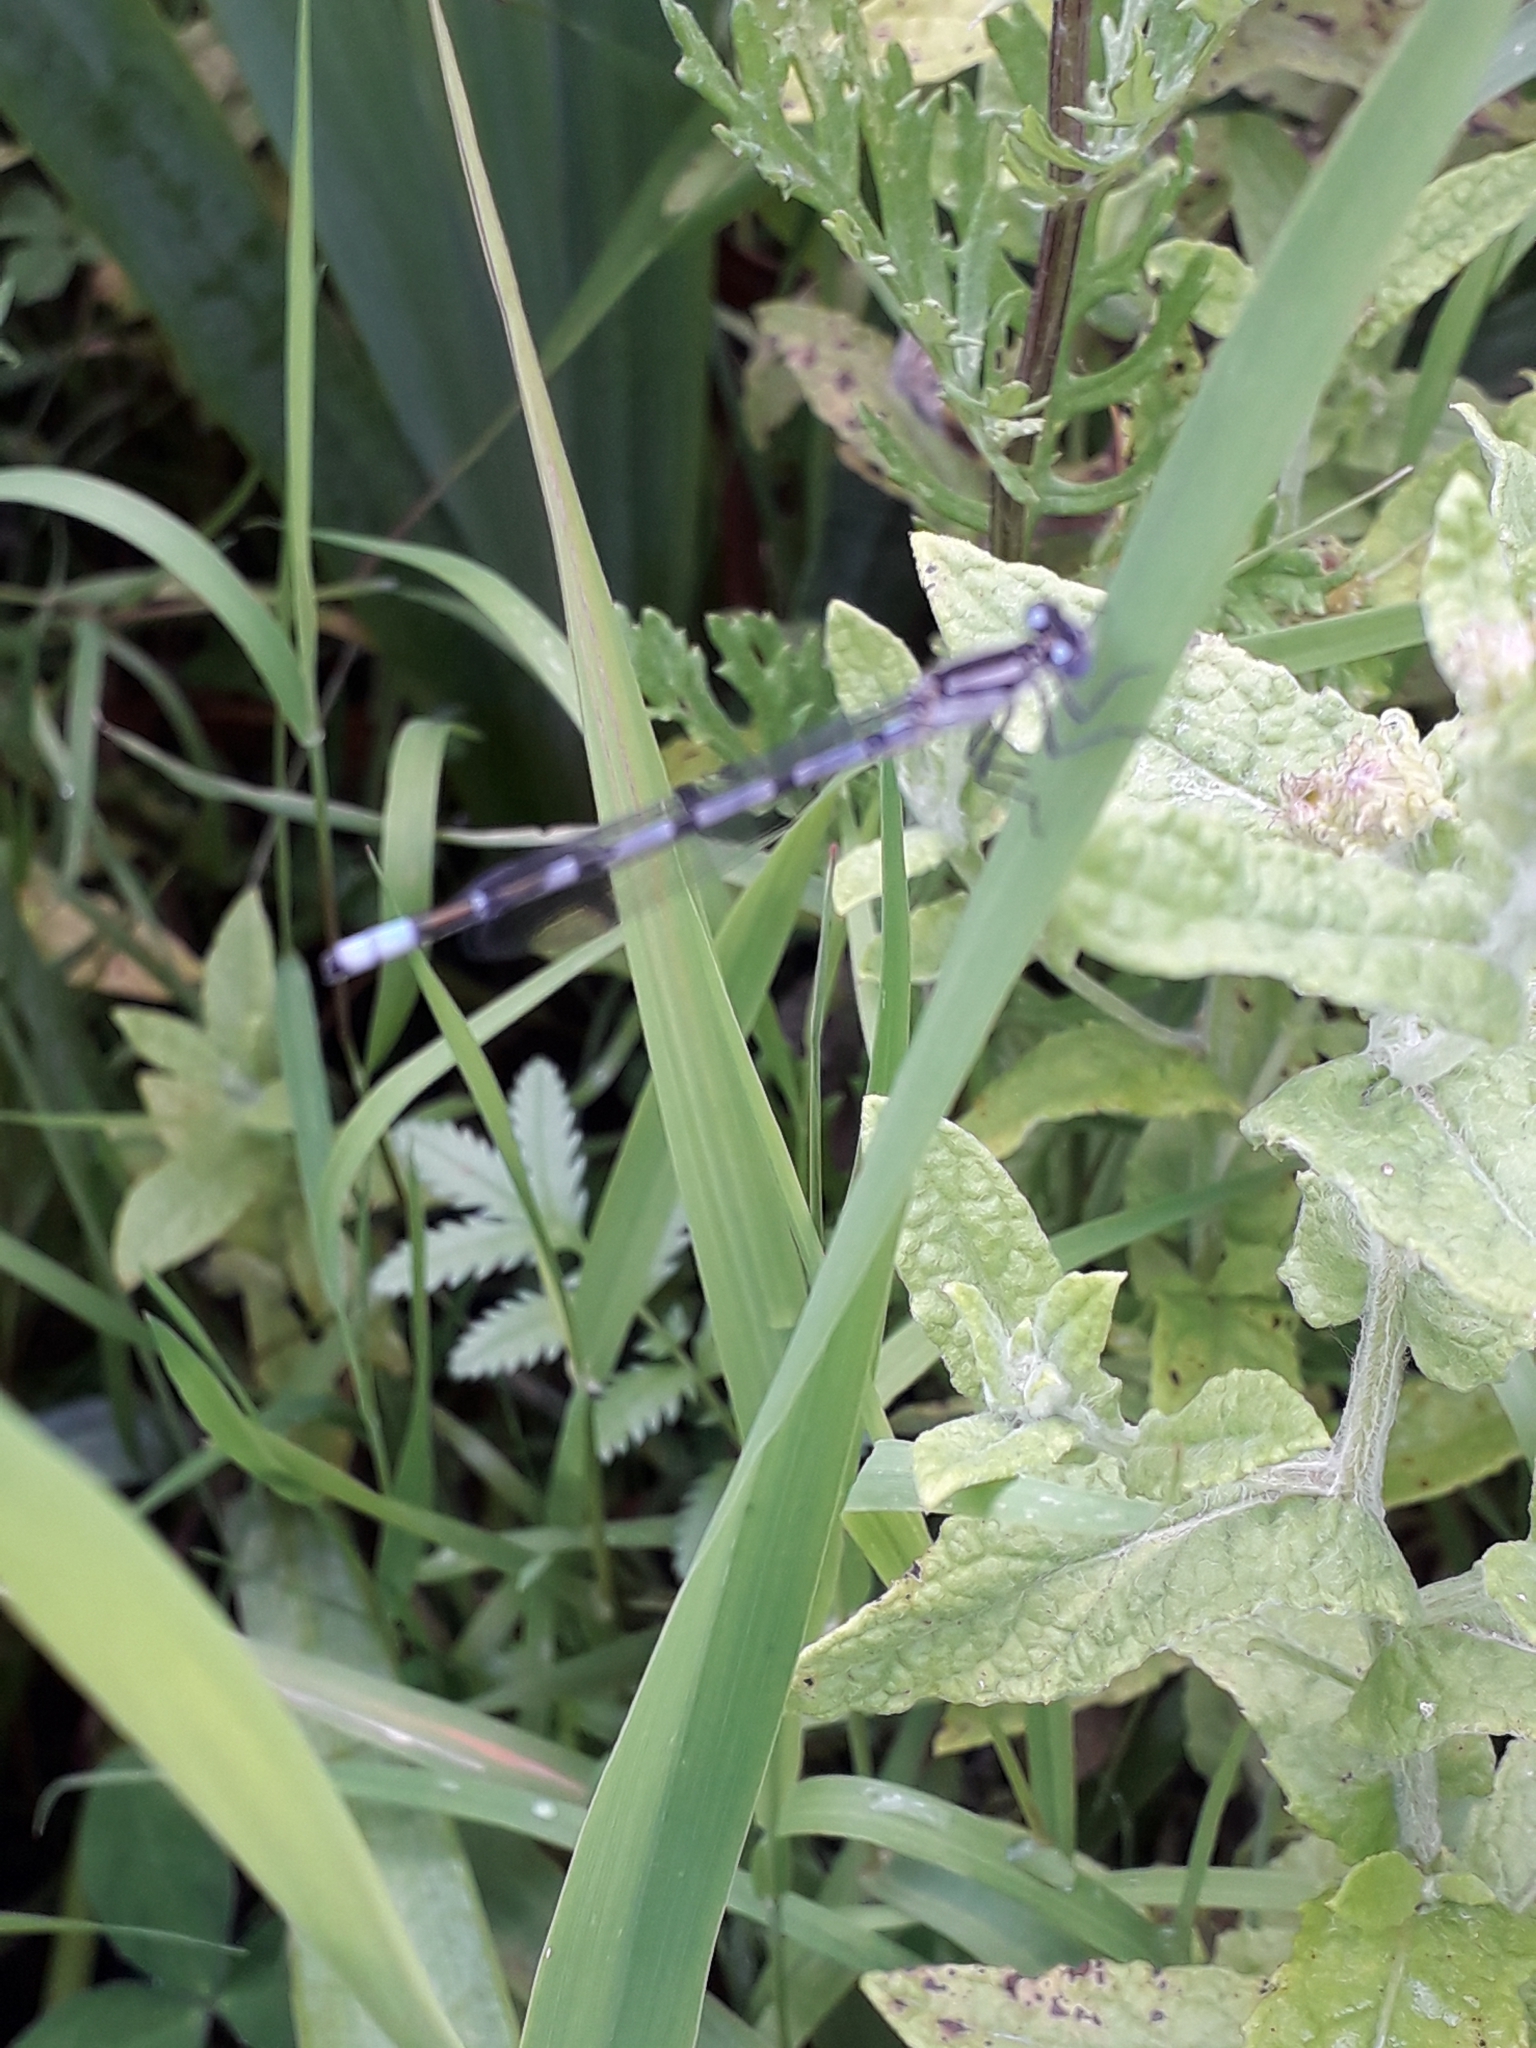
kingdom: Animalia
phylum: Arthropoda
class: Insecta
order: Odonata
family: Coenagrionidae
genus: Enallagma
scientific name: Enallagma cyathigerum
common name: Common blue damselfly
